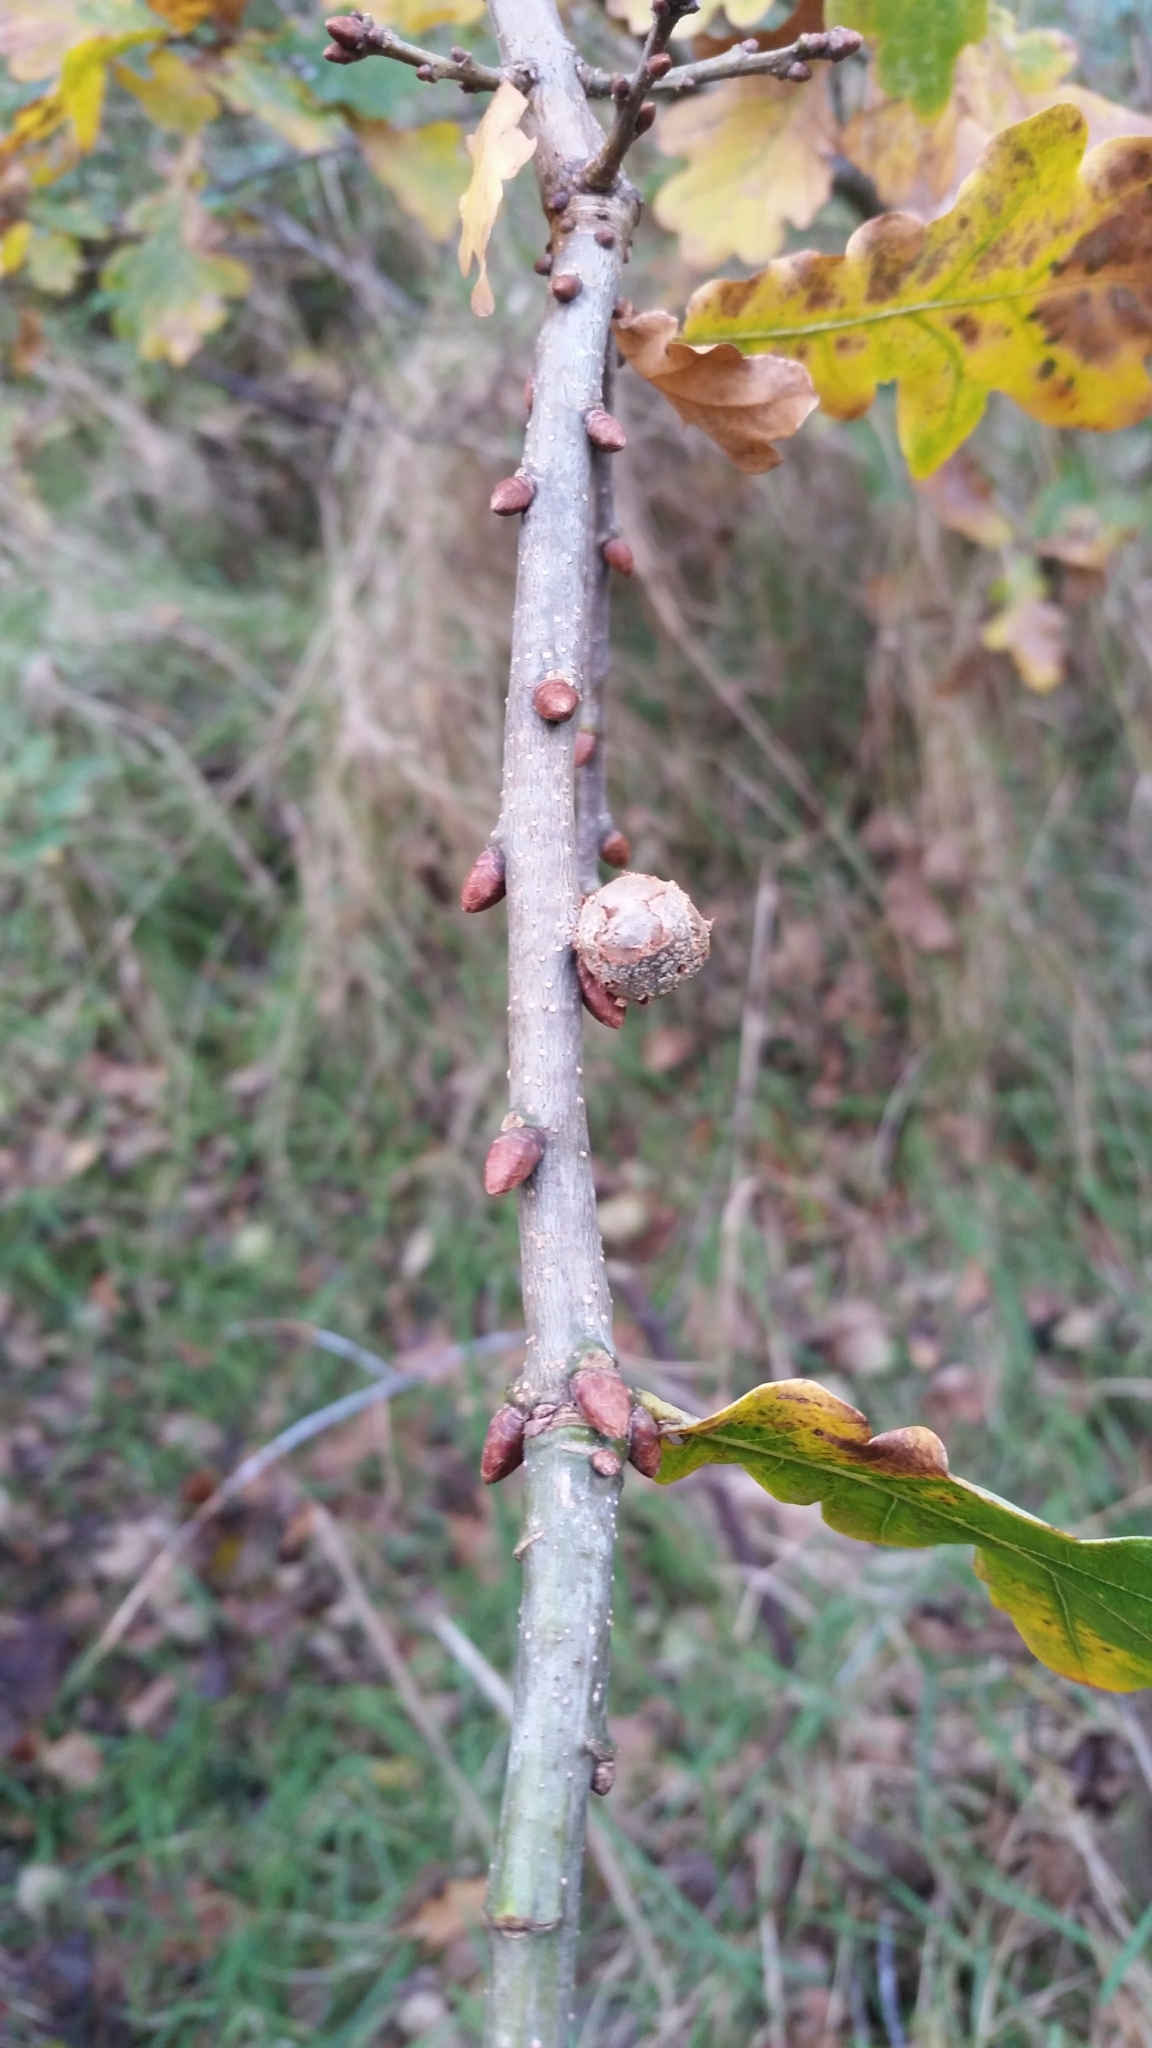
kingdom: Animalia
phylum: Arthropoda
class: Insecta
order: Hymenoptera
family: Cynipidae
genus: Andricus
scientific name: Andricus lignicolus
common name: Cola-nut gall
